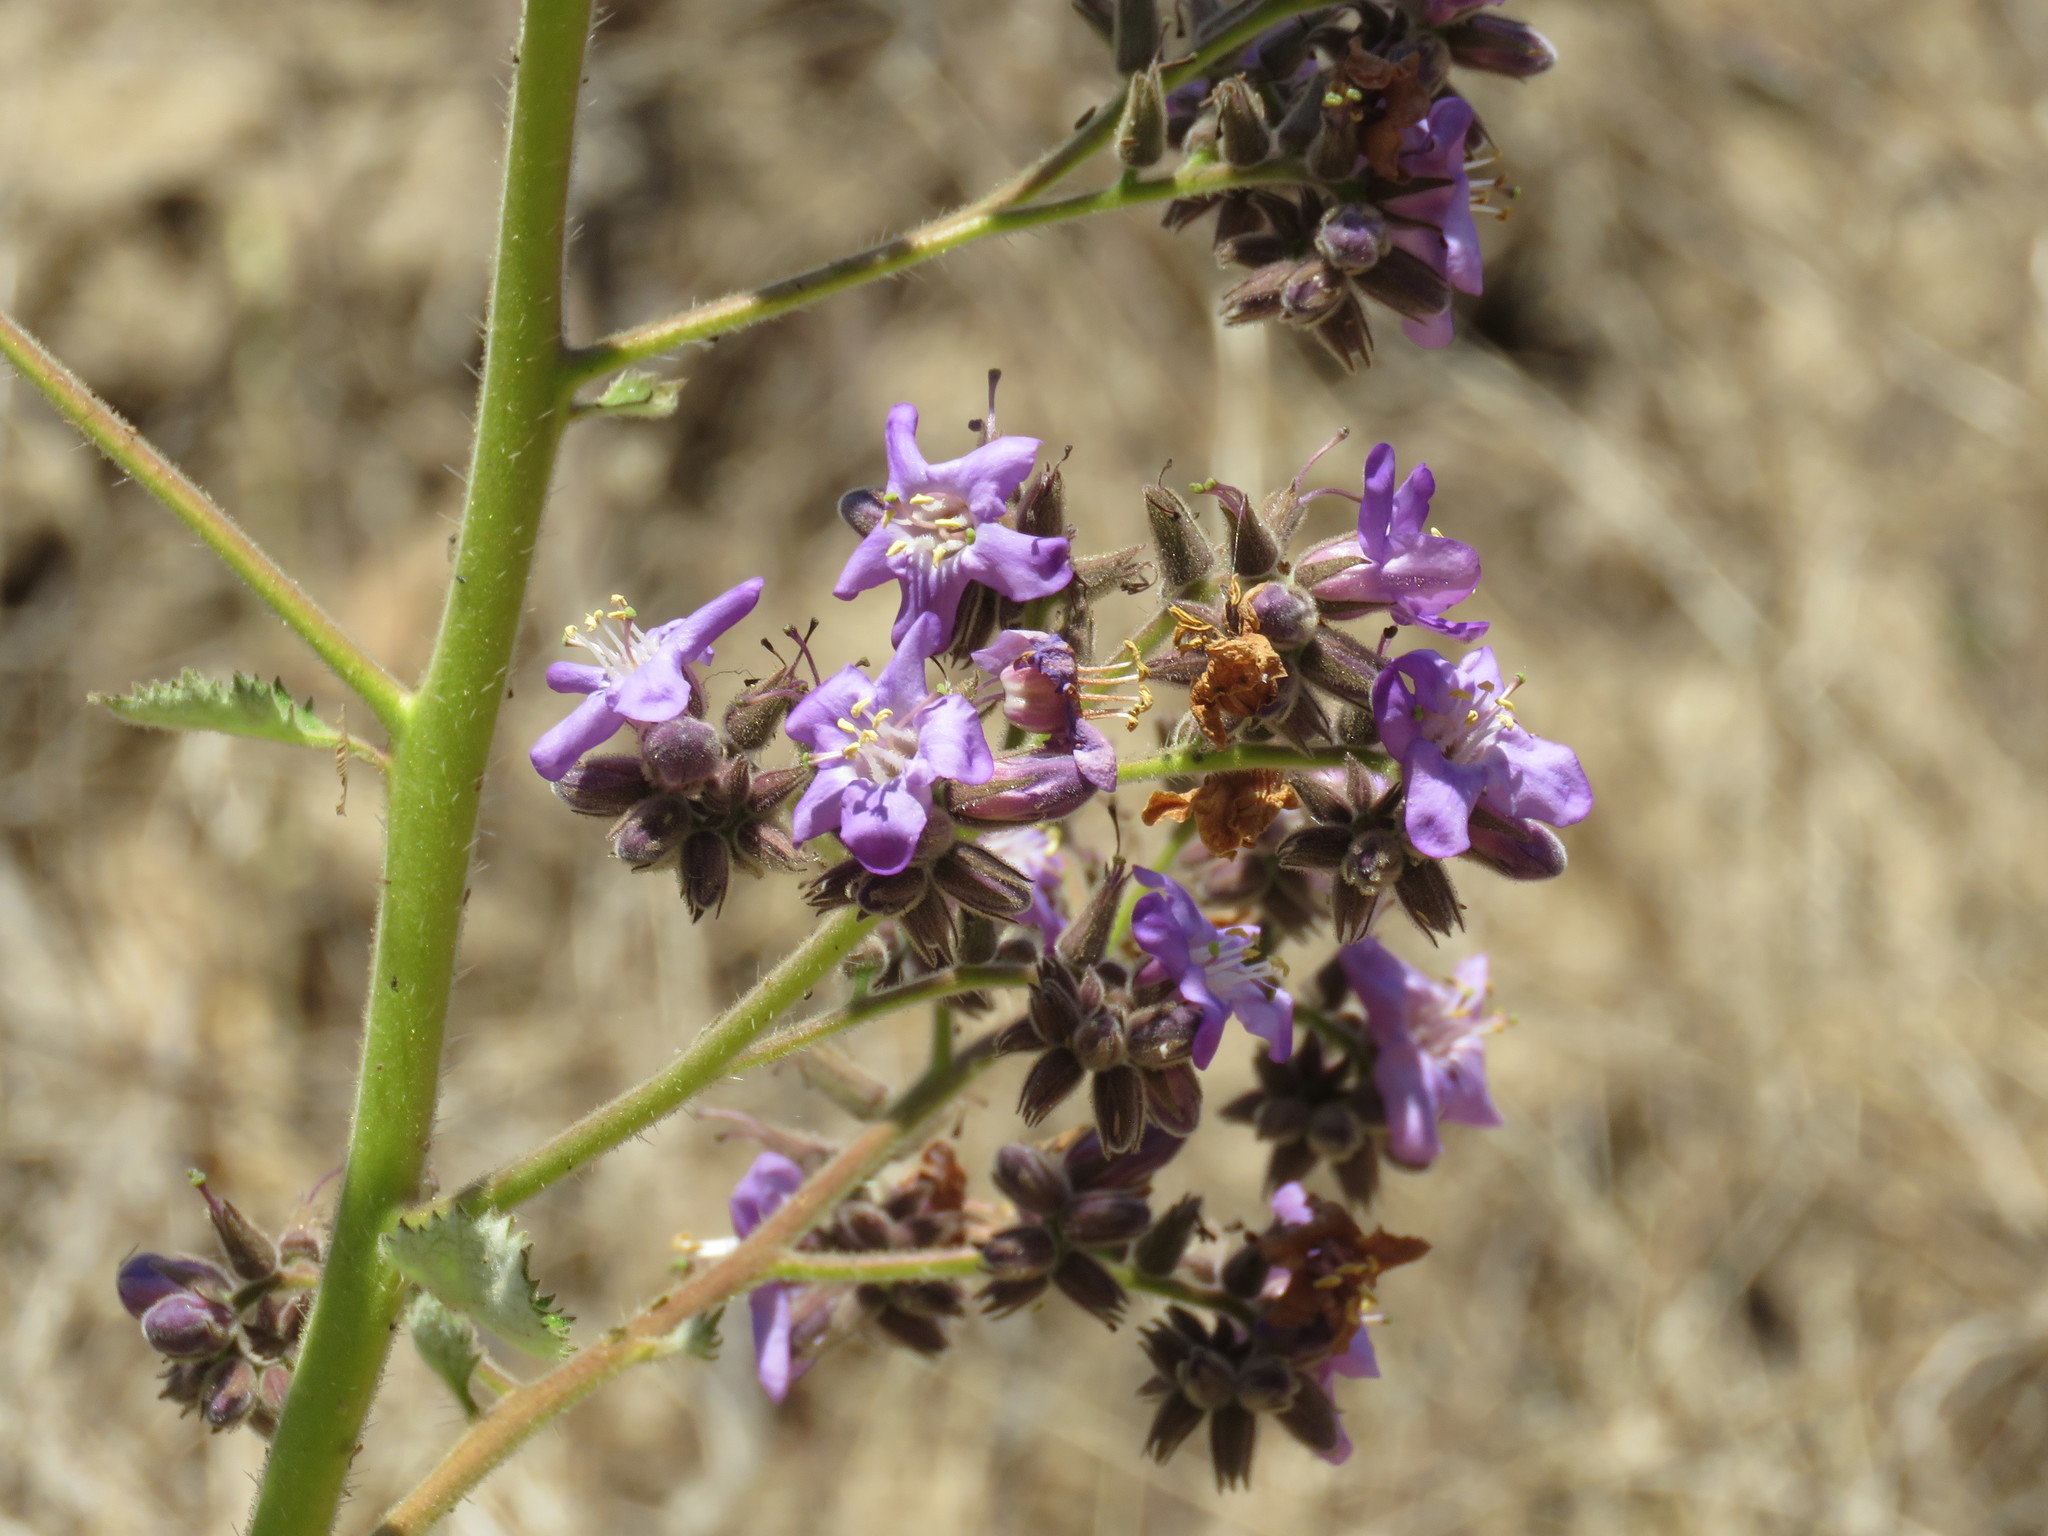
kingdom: Plantae
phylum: Tracheophyta
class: Magnoliopsida
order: Boraginales
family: Namaceae
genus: Wigandia
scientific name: Wigandia urens
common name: Caracus wigandia
